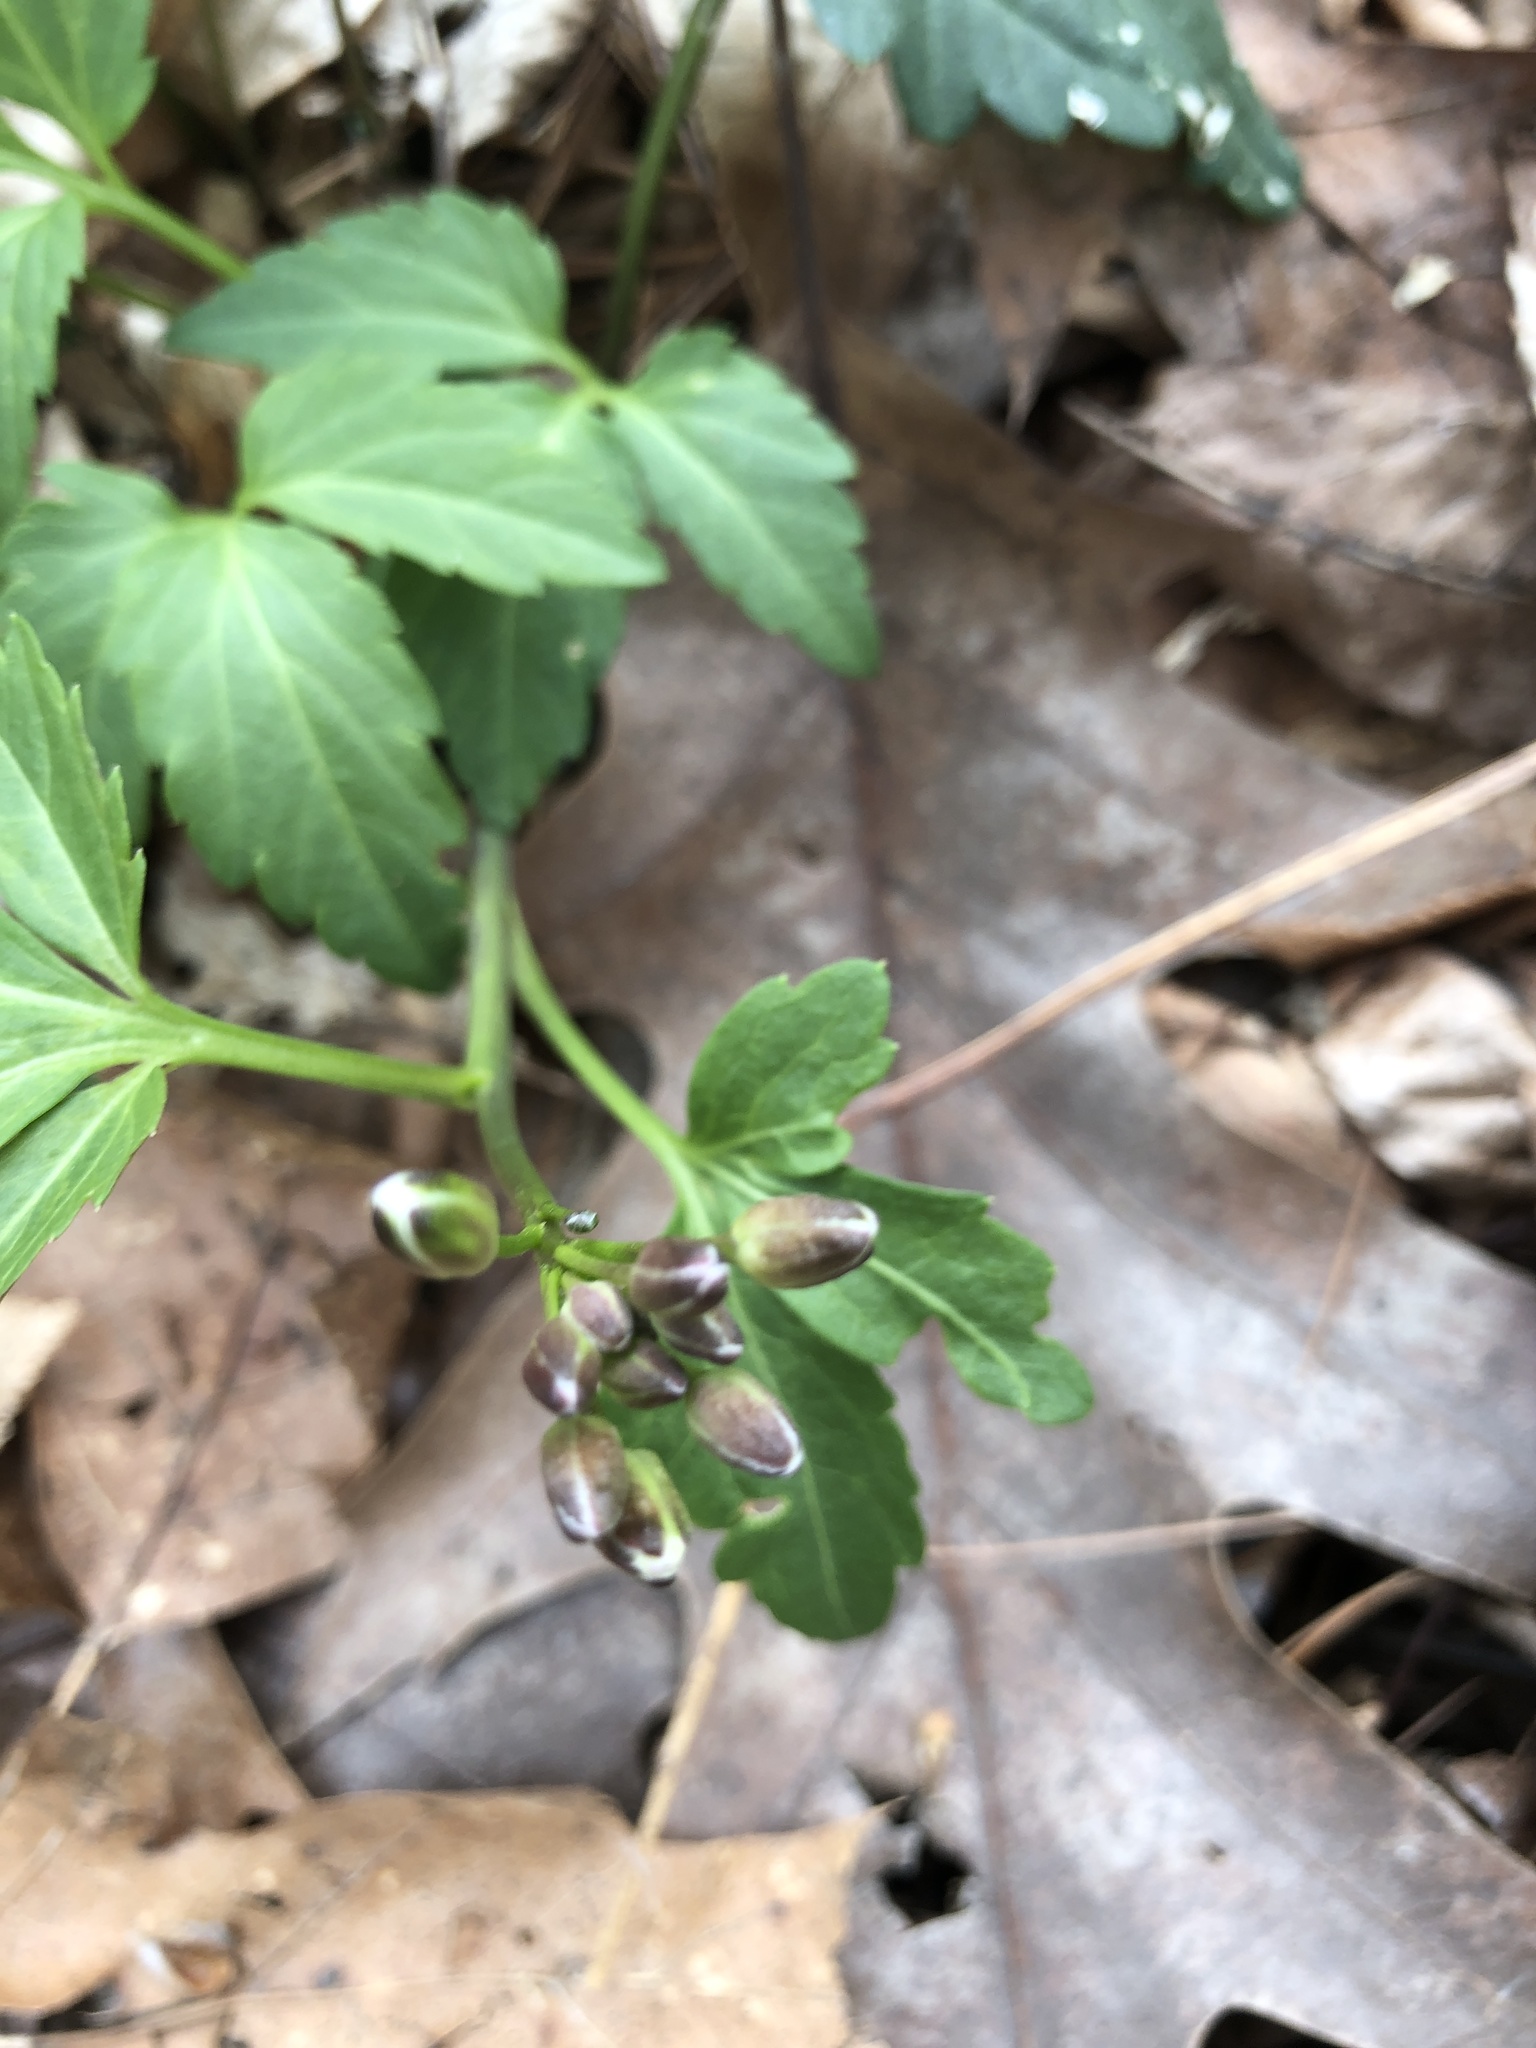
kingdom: Plantae
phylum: Tracheophyta
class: Magnoliopsida
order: Brassicales
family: Brassicaceae
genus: Cardamine
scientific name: Cardamine diphylla
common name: Broad-leaved toothwort
